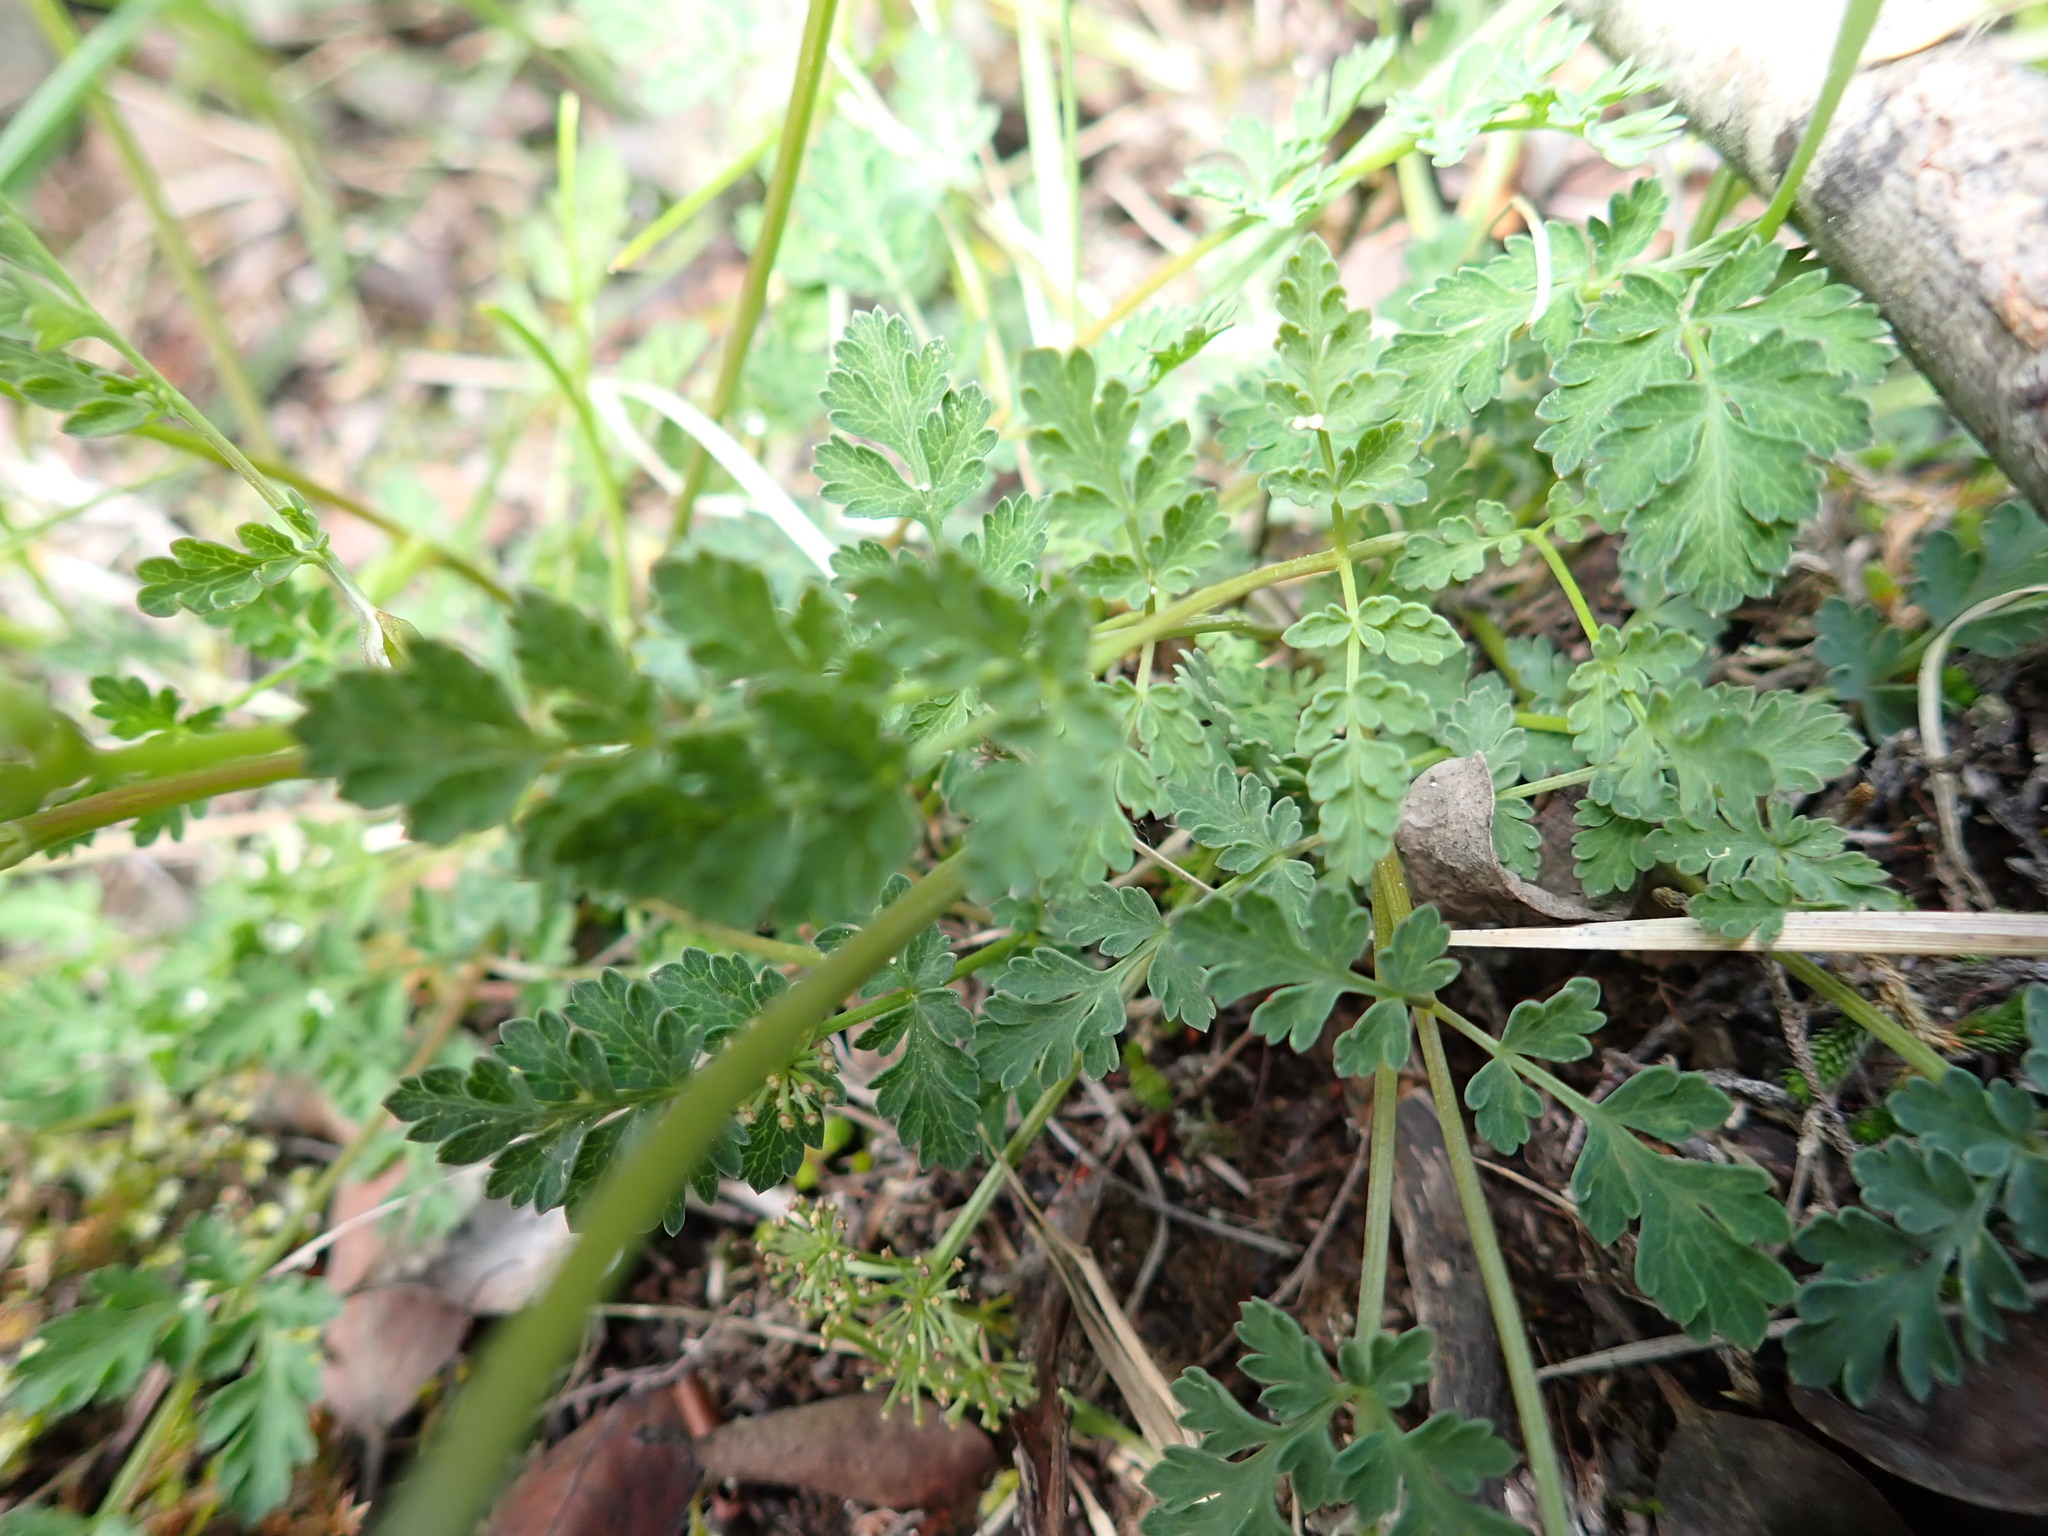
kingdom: Plantae
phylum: Tracheophyta
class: Magnoliopsida
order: Apiales
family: Apiaceae
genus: Lomatium
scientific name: Lomatium martindalei
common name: Cascade desert-parsley
